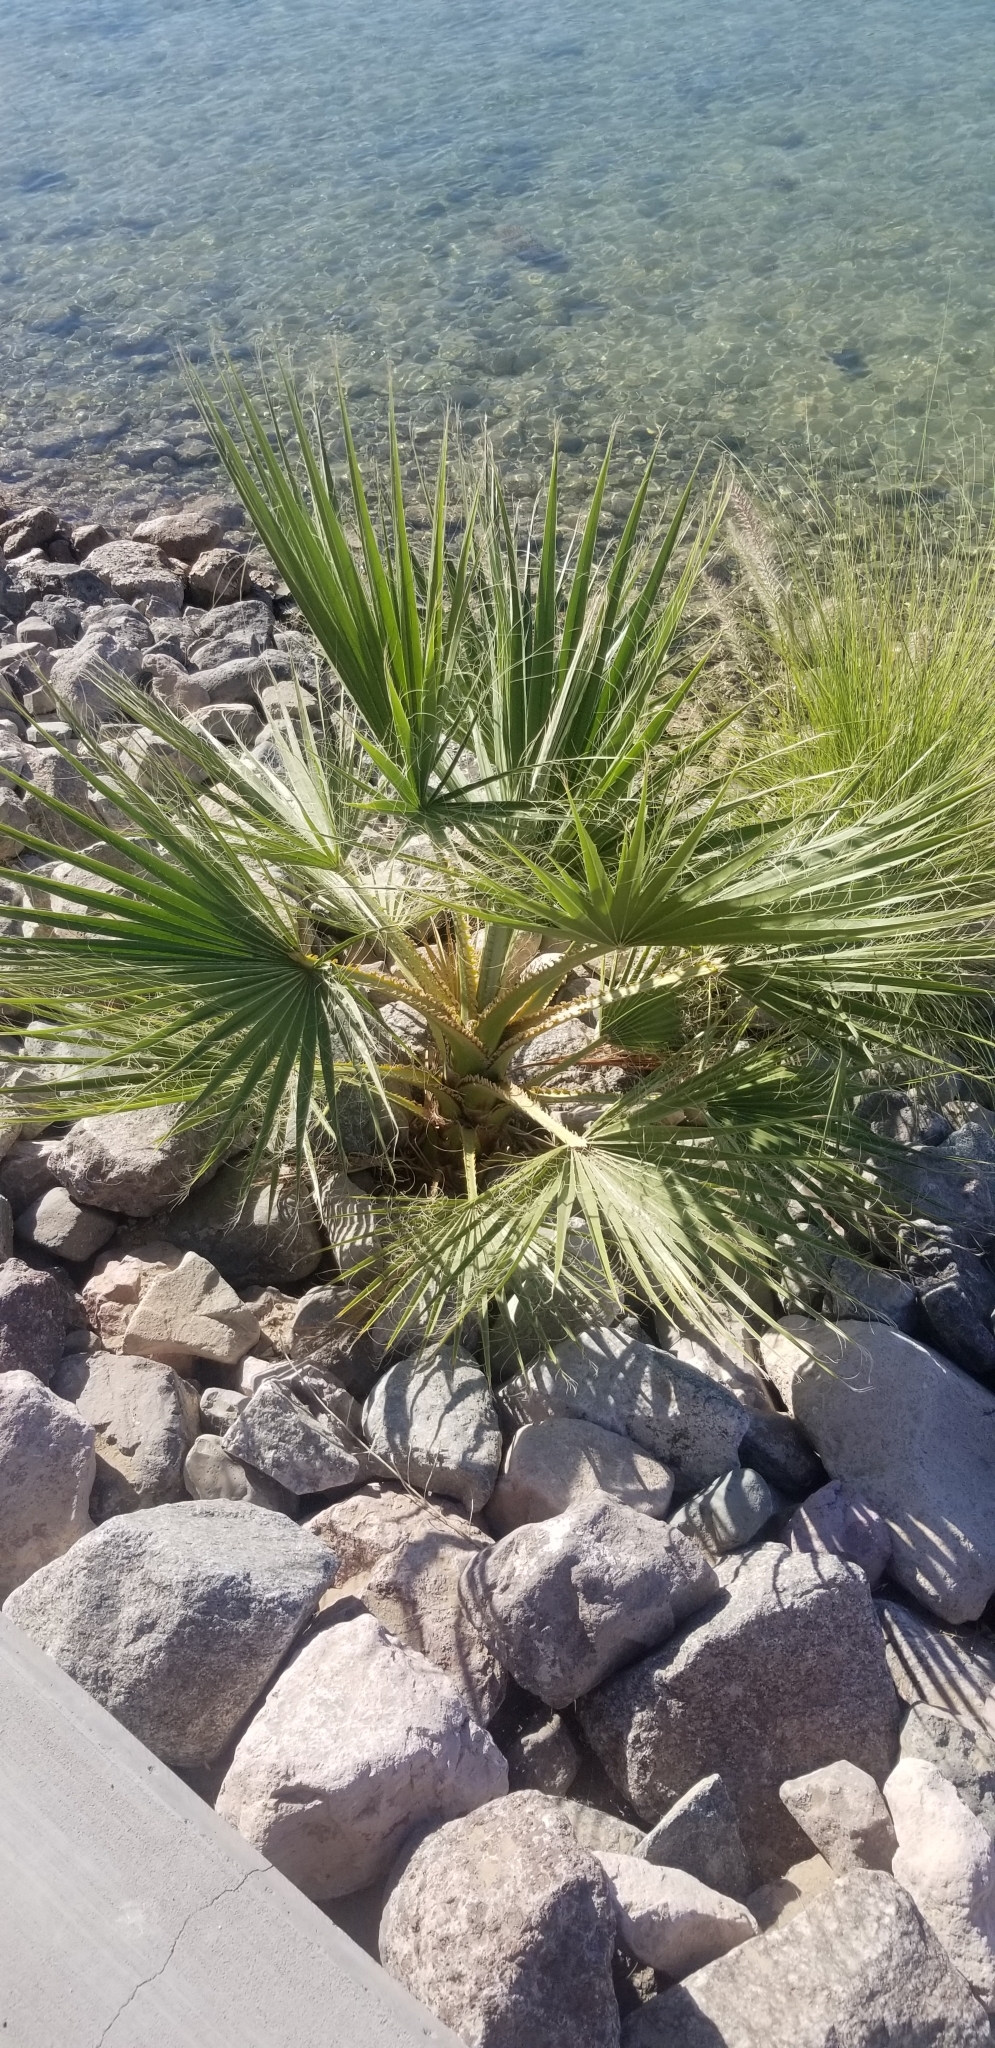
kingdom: Plantae
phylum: Tracheophyta
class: Liliopsida
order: Arecales
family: Arecaceae
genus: Washingtonia
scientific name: Washingtonia filifera
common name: California fan palm
